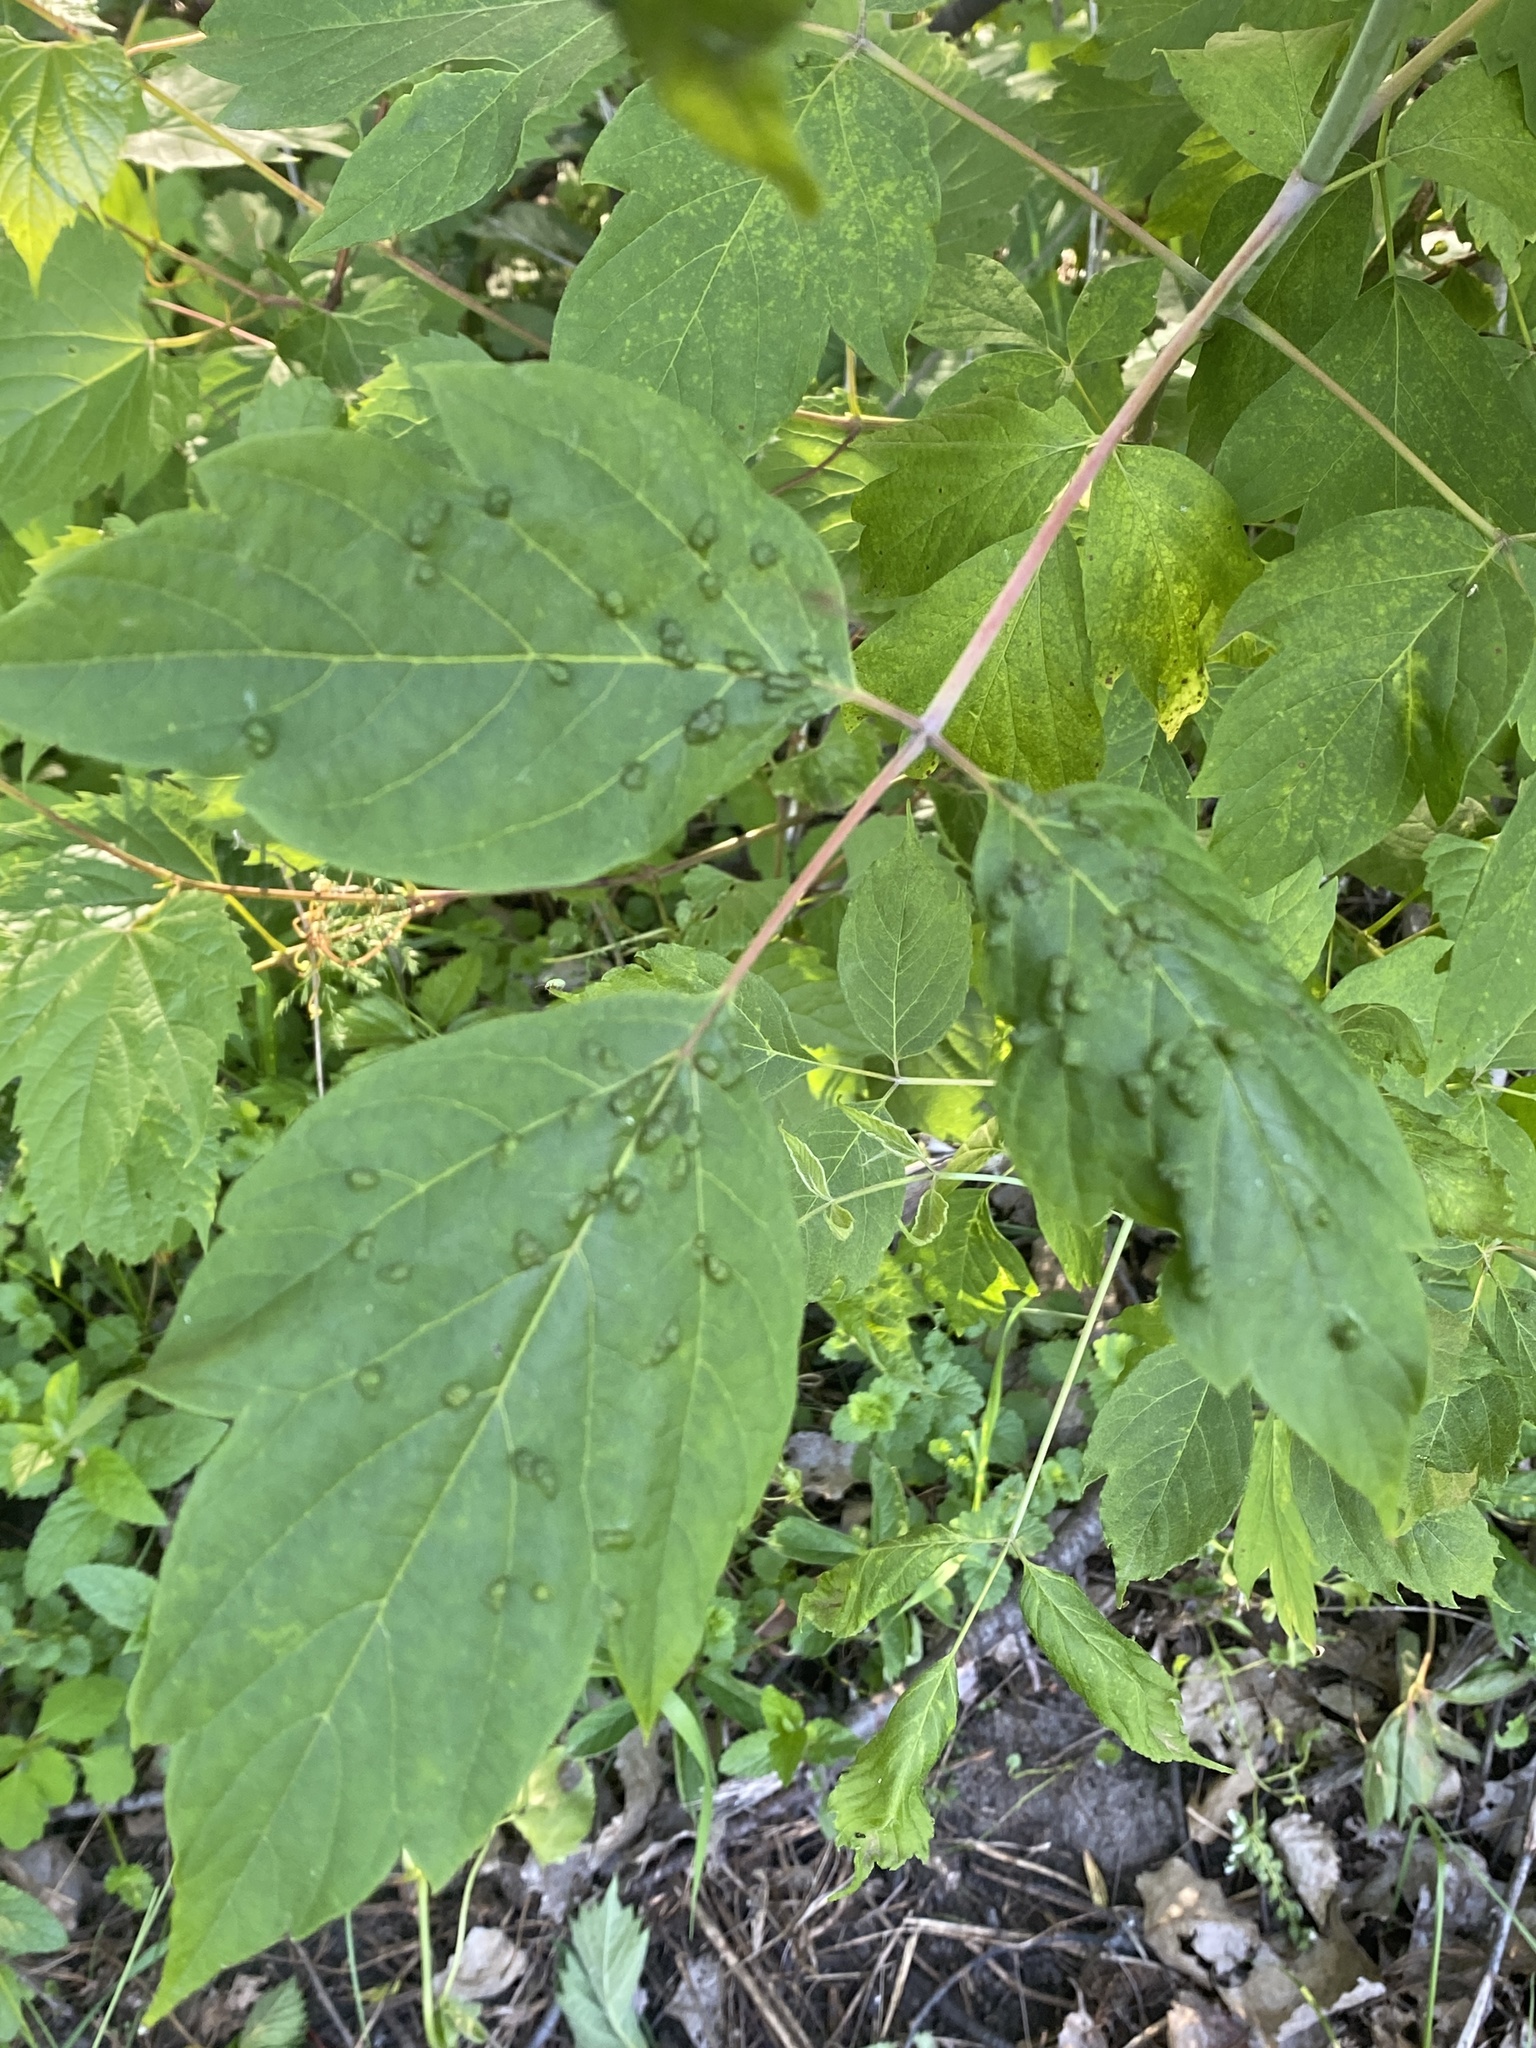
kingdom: Animalia
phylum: Arthropoda
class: Arachnida
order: Trombidiformes
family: Eriophyidae
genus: Aceria
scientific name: Aceria
